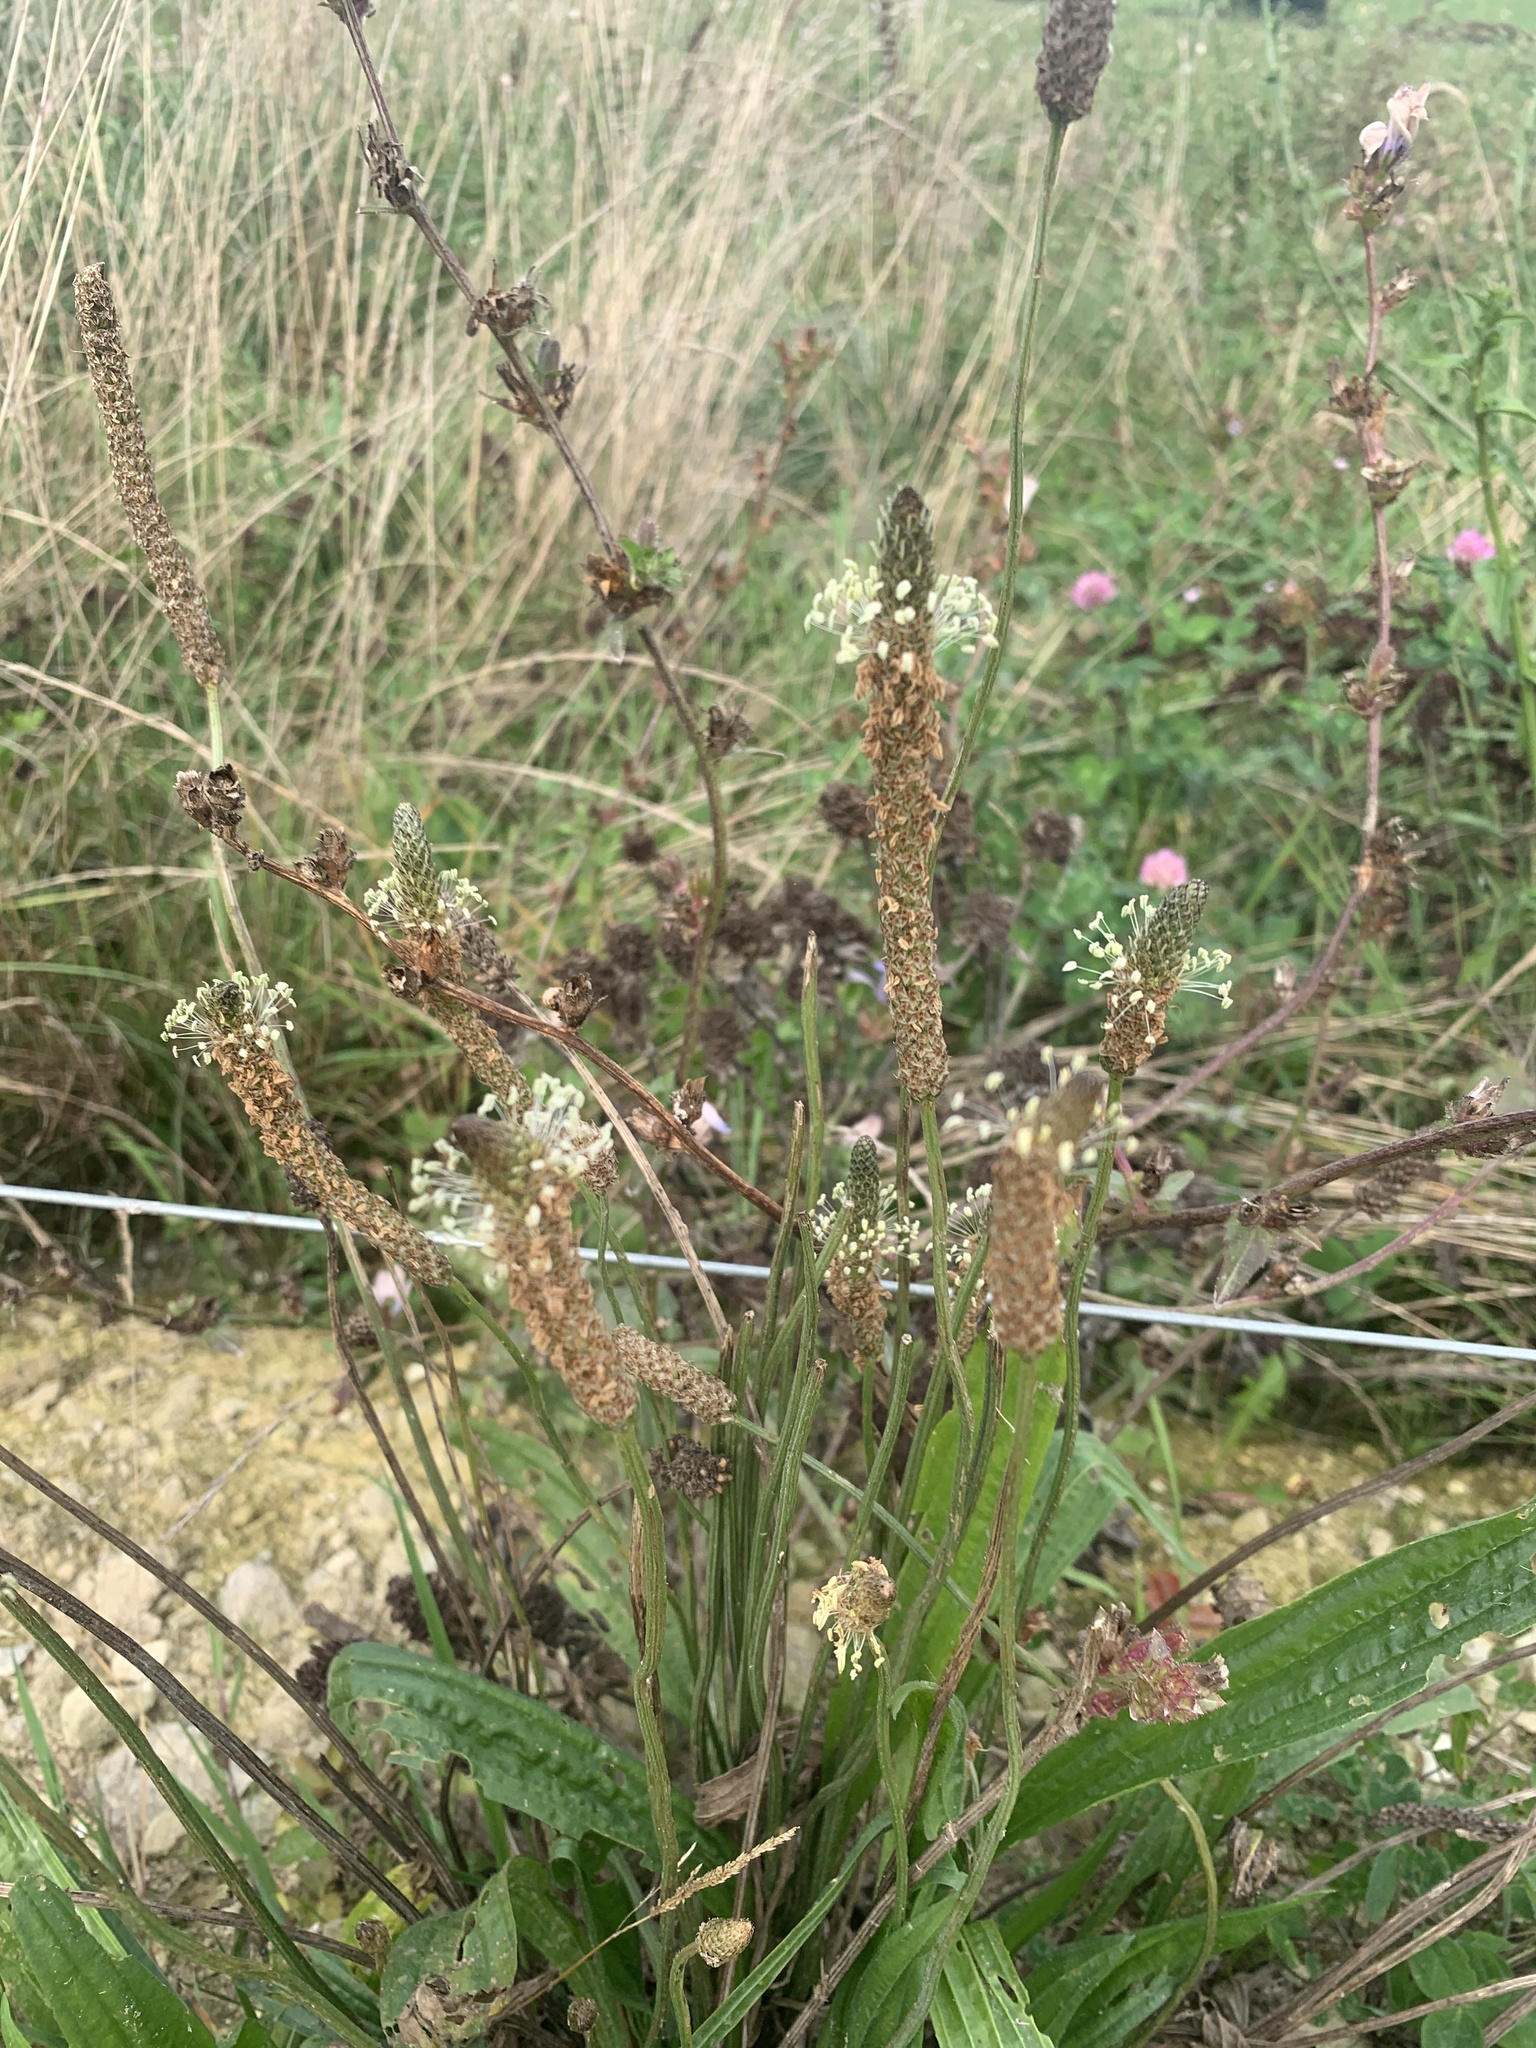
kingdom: Plantae
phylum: Tracheophyta
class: Magnoliopsida
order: Lamiales
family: Plantaginaceae
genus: Plantago
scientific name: Plantago lanceolata
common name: Ribwort plantain
